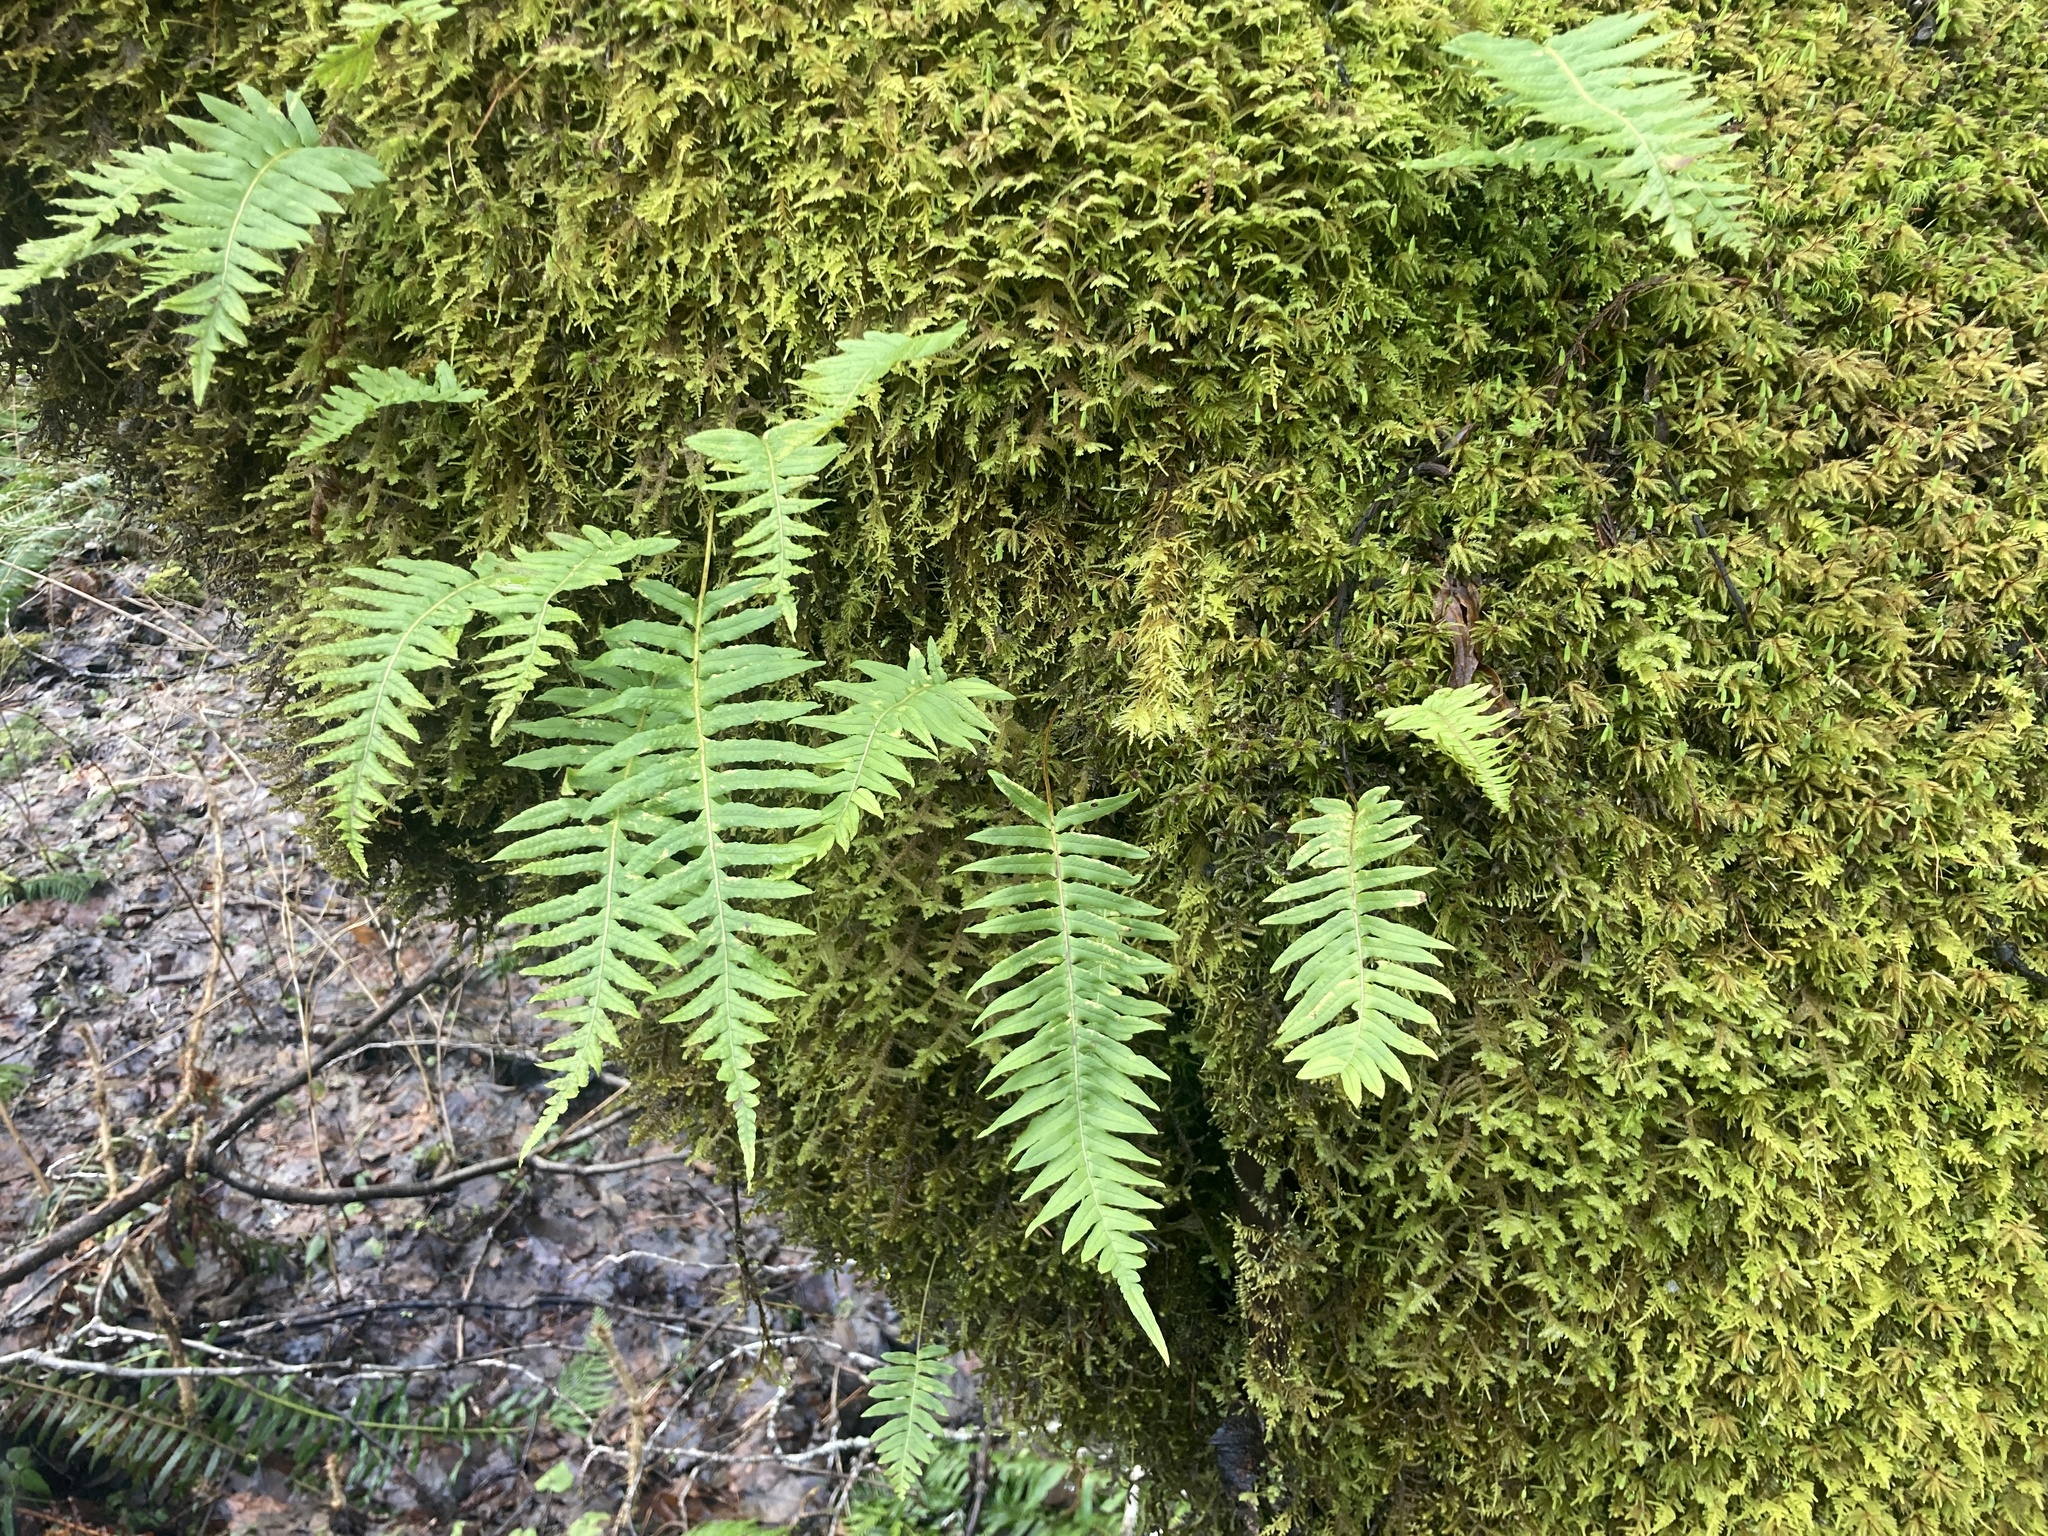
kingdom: Plantae
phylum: Tracheophyta
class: Polypodiopsida
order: Polypodiales
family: Polypodiaceae
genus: Polypodium
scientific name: Polypodium glycyrrhiza
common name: Licorice fern
